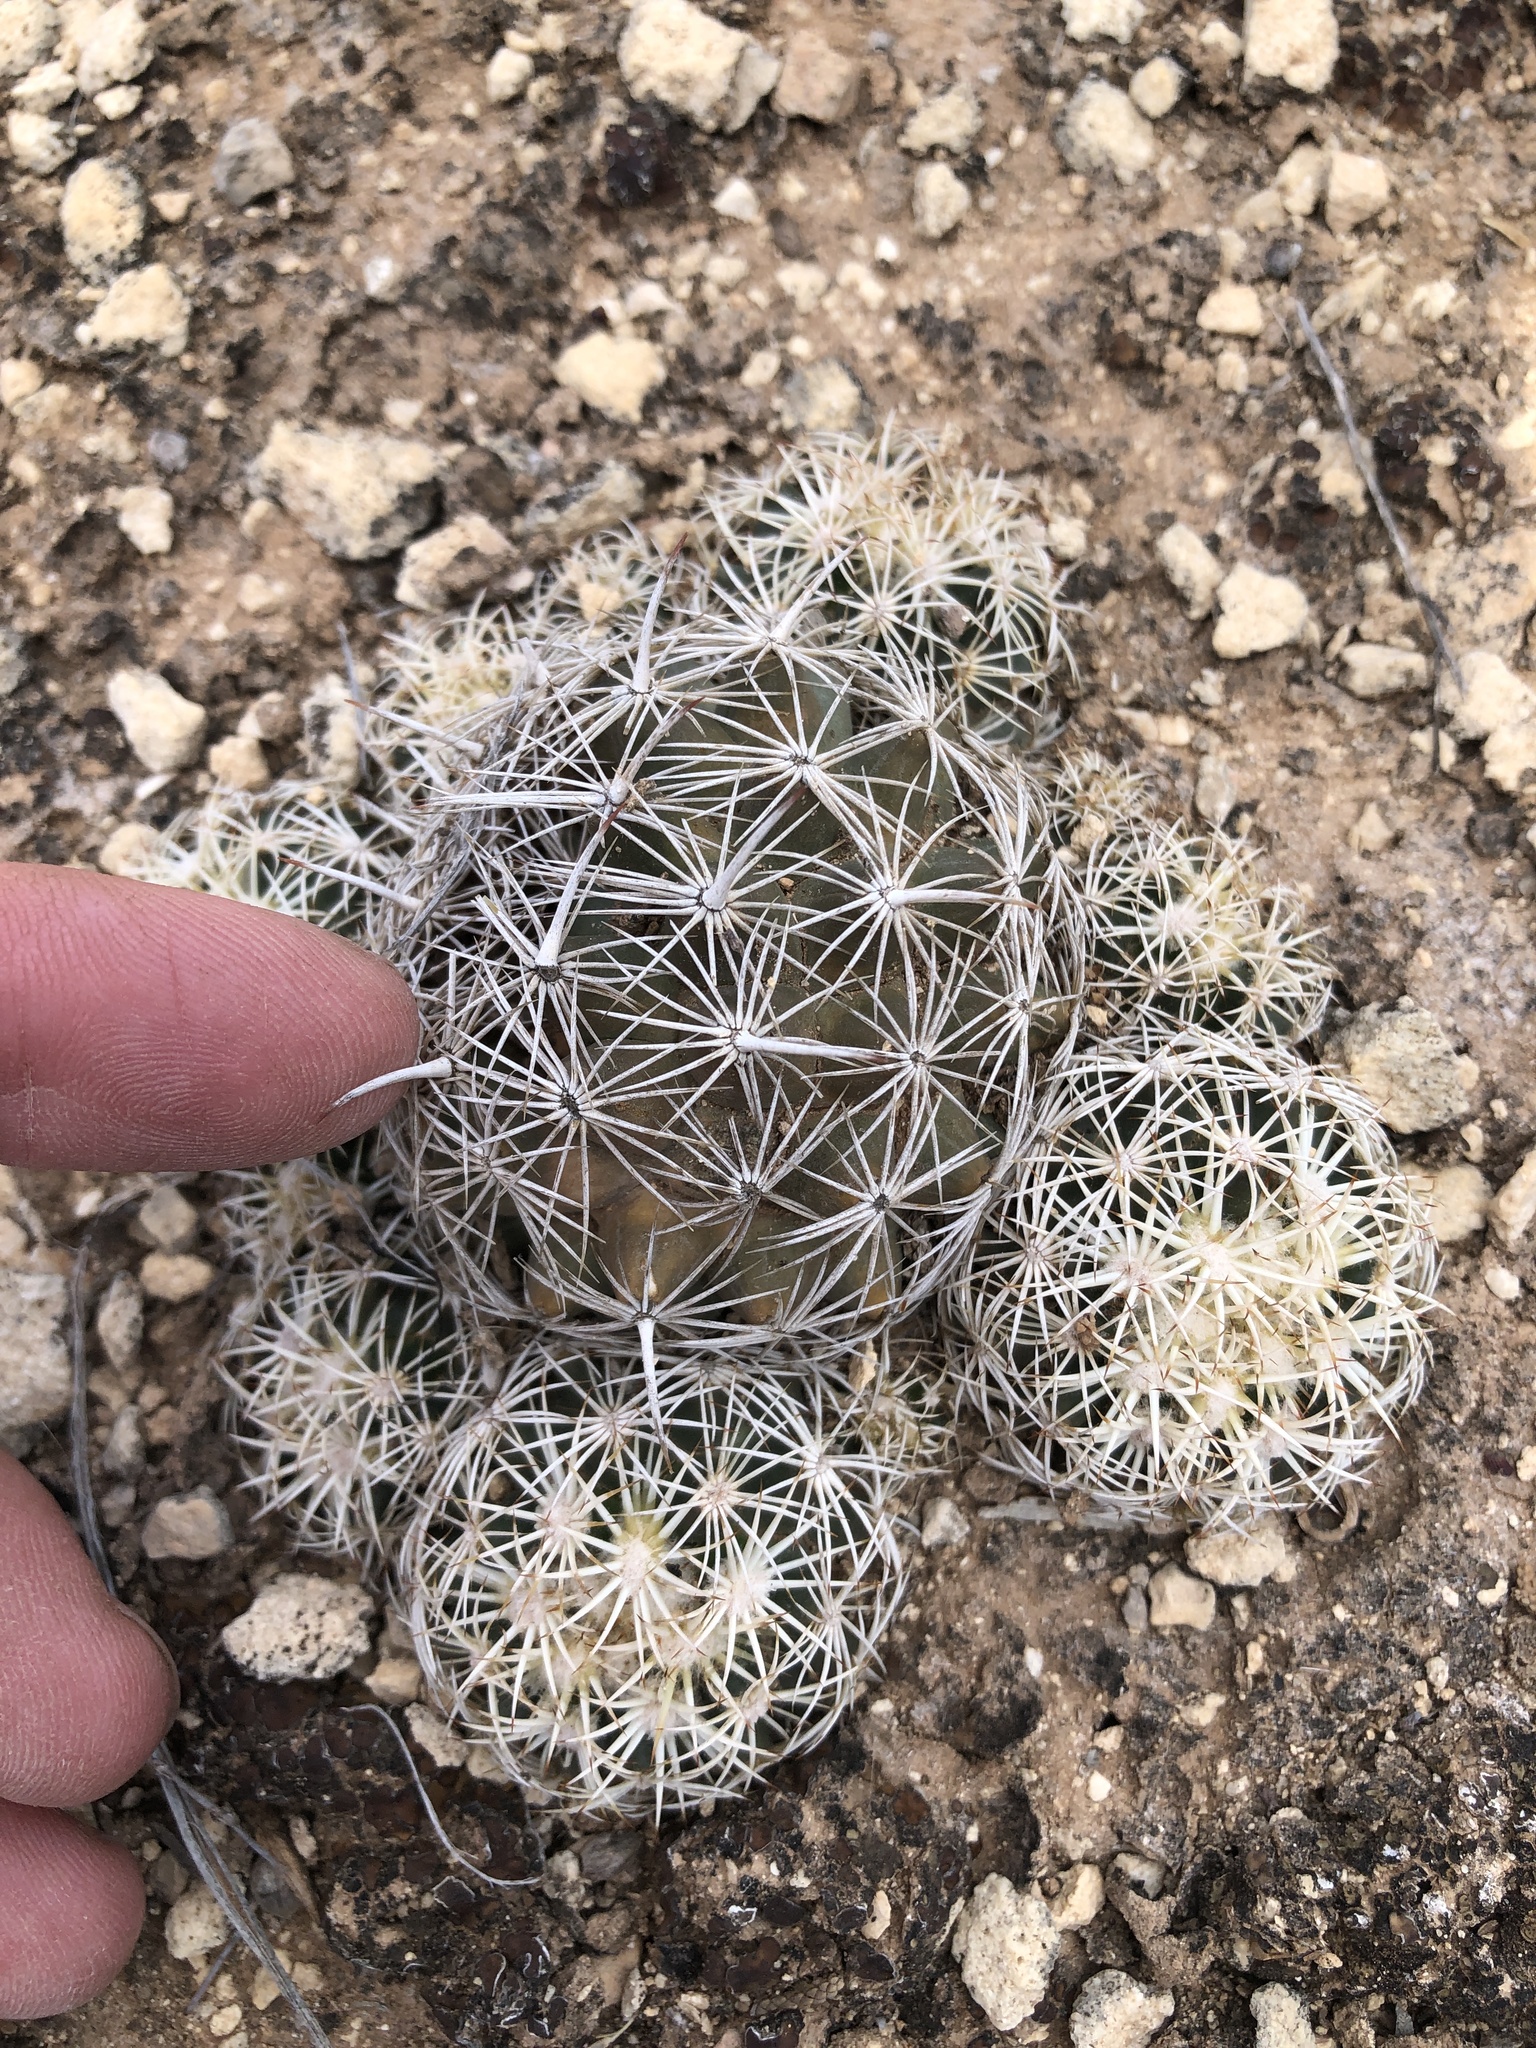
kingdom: Plantae
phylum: Tracheophyta
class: Magnoliopsida
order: Caryophyllales
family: Cactaceae
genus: Coryphantha
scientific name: Coryphantha echinus
